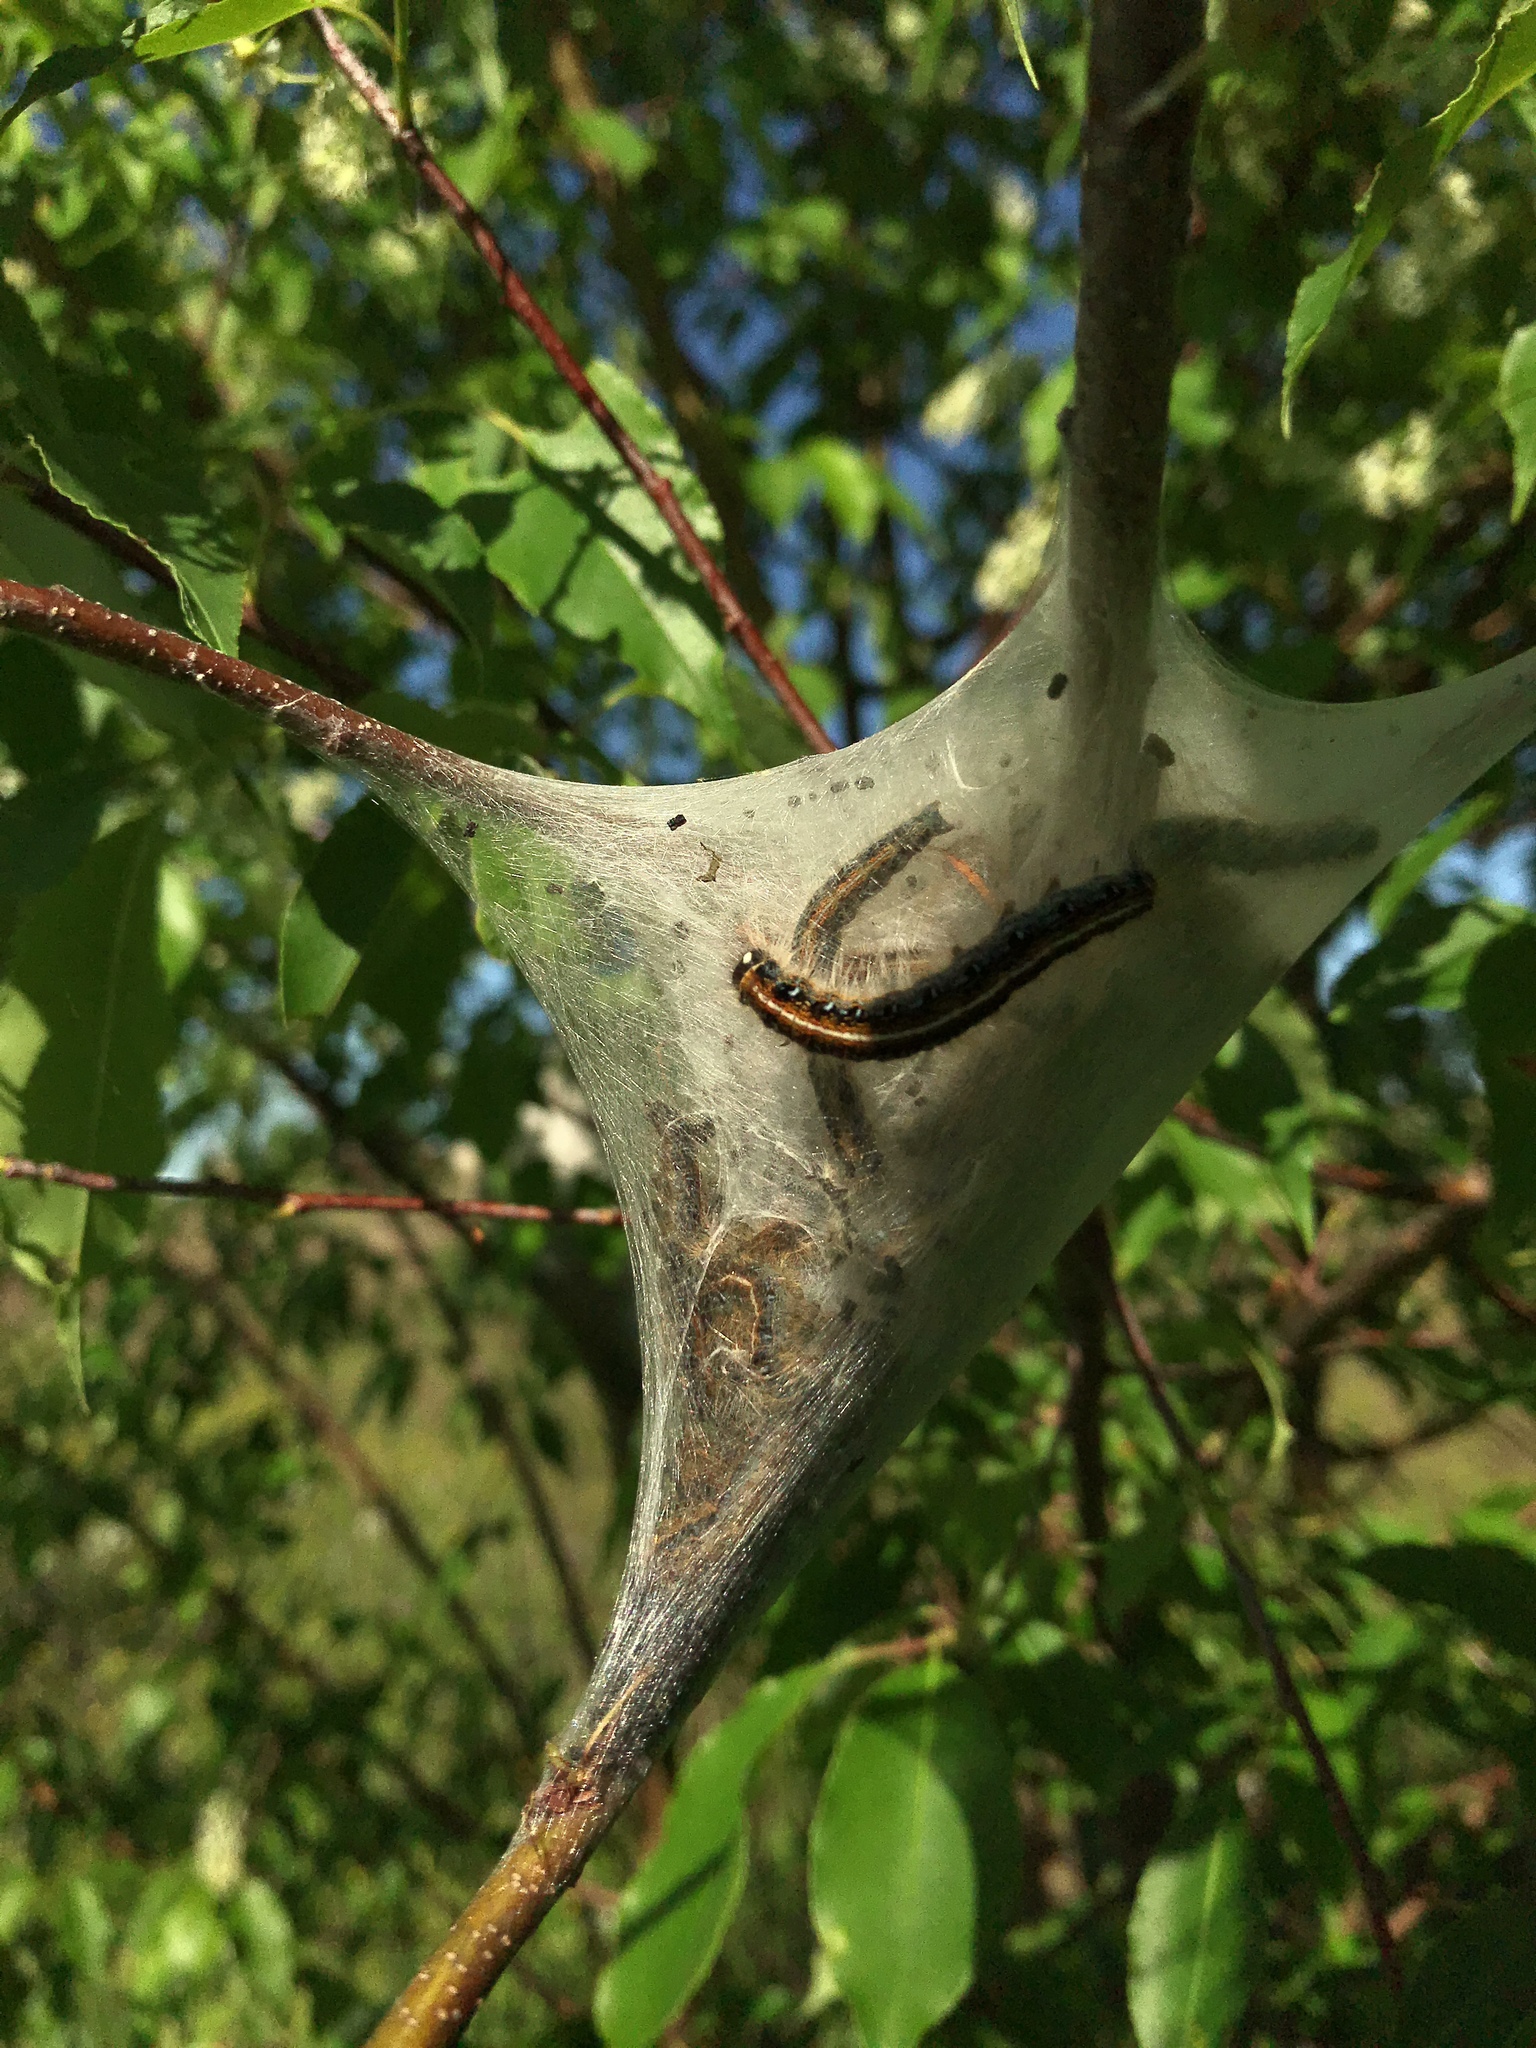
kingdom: Animalia
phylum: Arthropoda
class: Insecta
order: Lepidoptera
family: Lasiocampidae
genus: Malacosoma
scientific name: Malacosoma americana
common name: Eastern tent caterpillar moth
